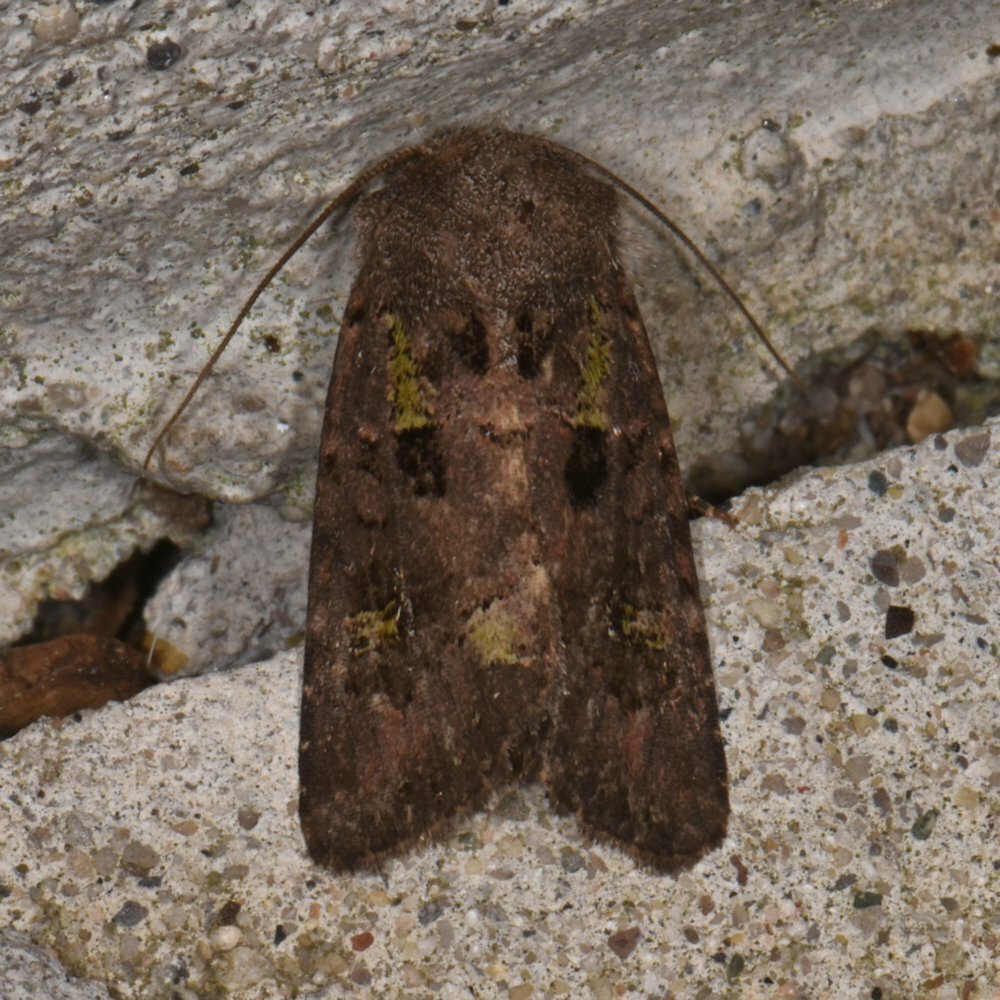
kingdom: Animalia
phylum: Arthropoda
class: Insecta
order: Lepidoptera
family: Noctuidae
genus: Lacinipolia
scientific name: Lacinipolia renigera
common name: Kidney-spotted minor
